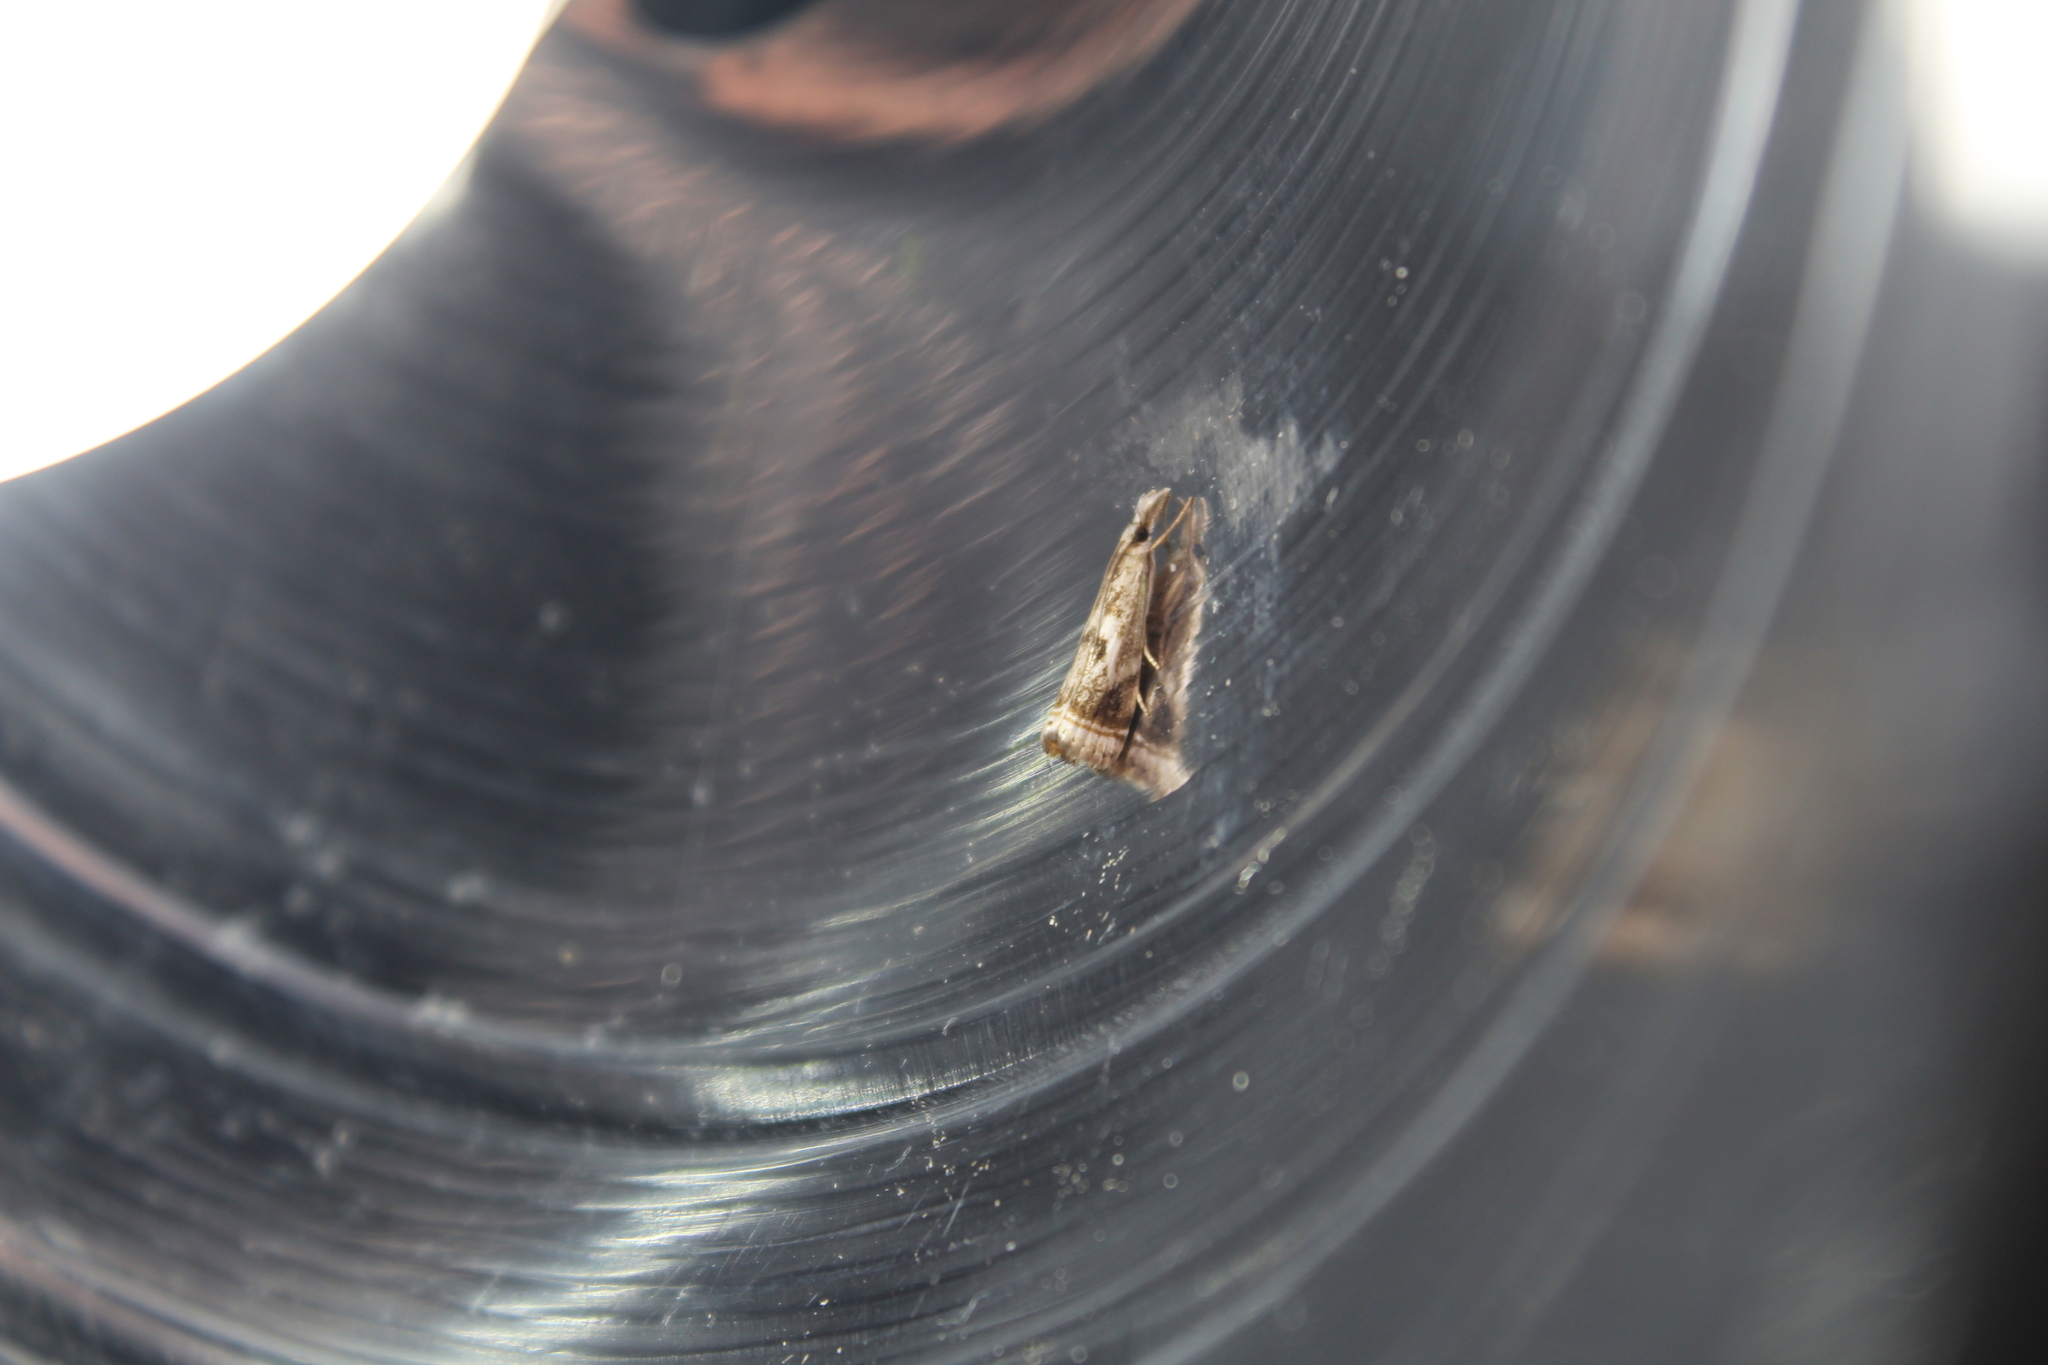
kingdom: Animalia
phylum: Arthropoda
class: Insecta
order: Lepidoptera
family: Crambidae
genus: Microcrambus
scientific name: Microcrambus elegans
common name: Elegant grass-veneer
